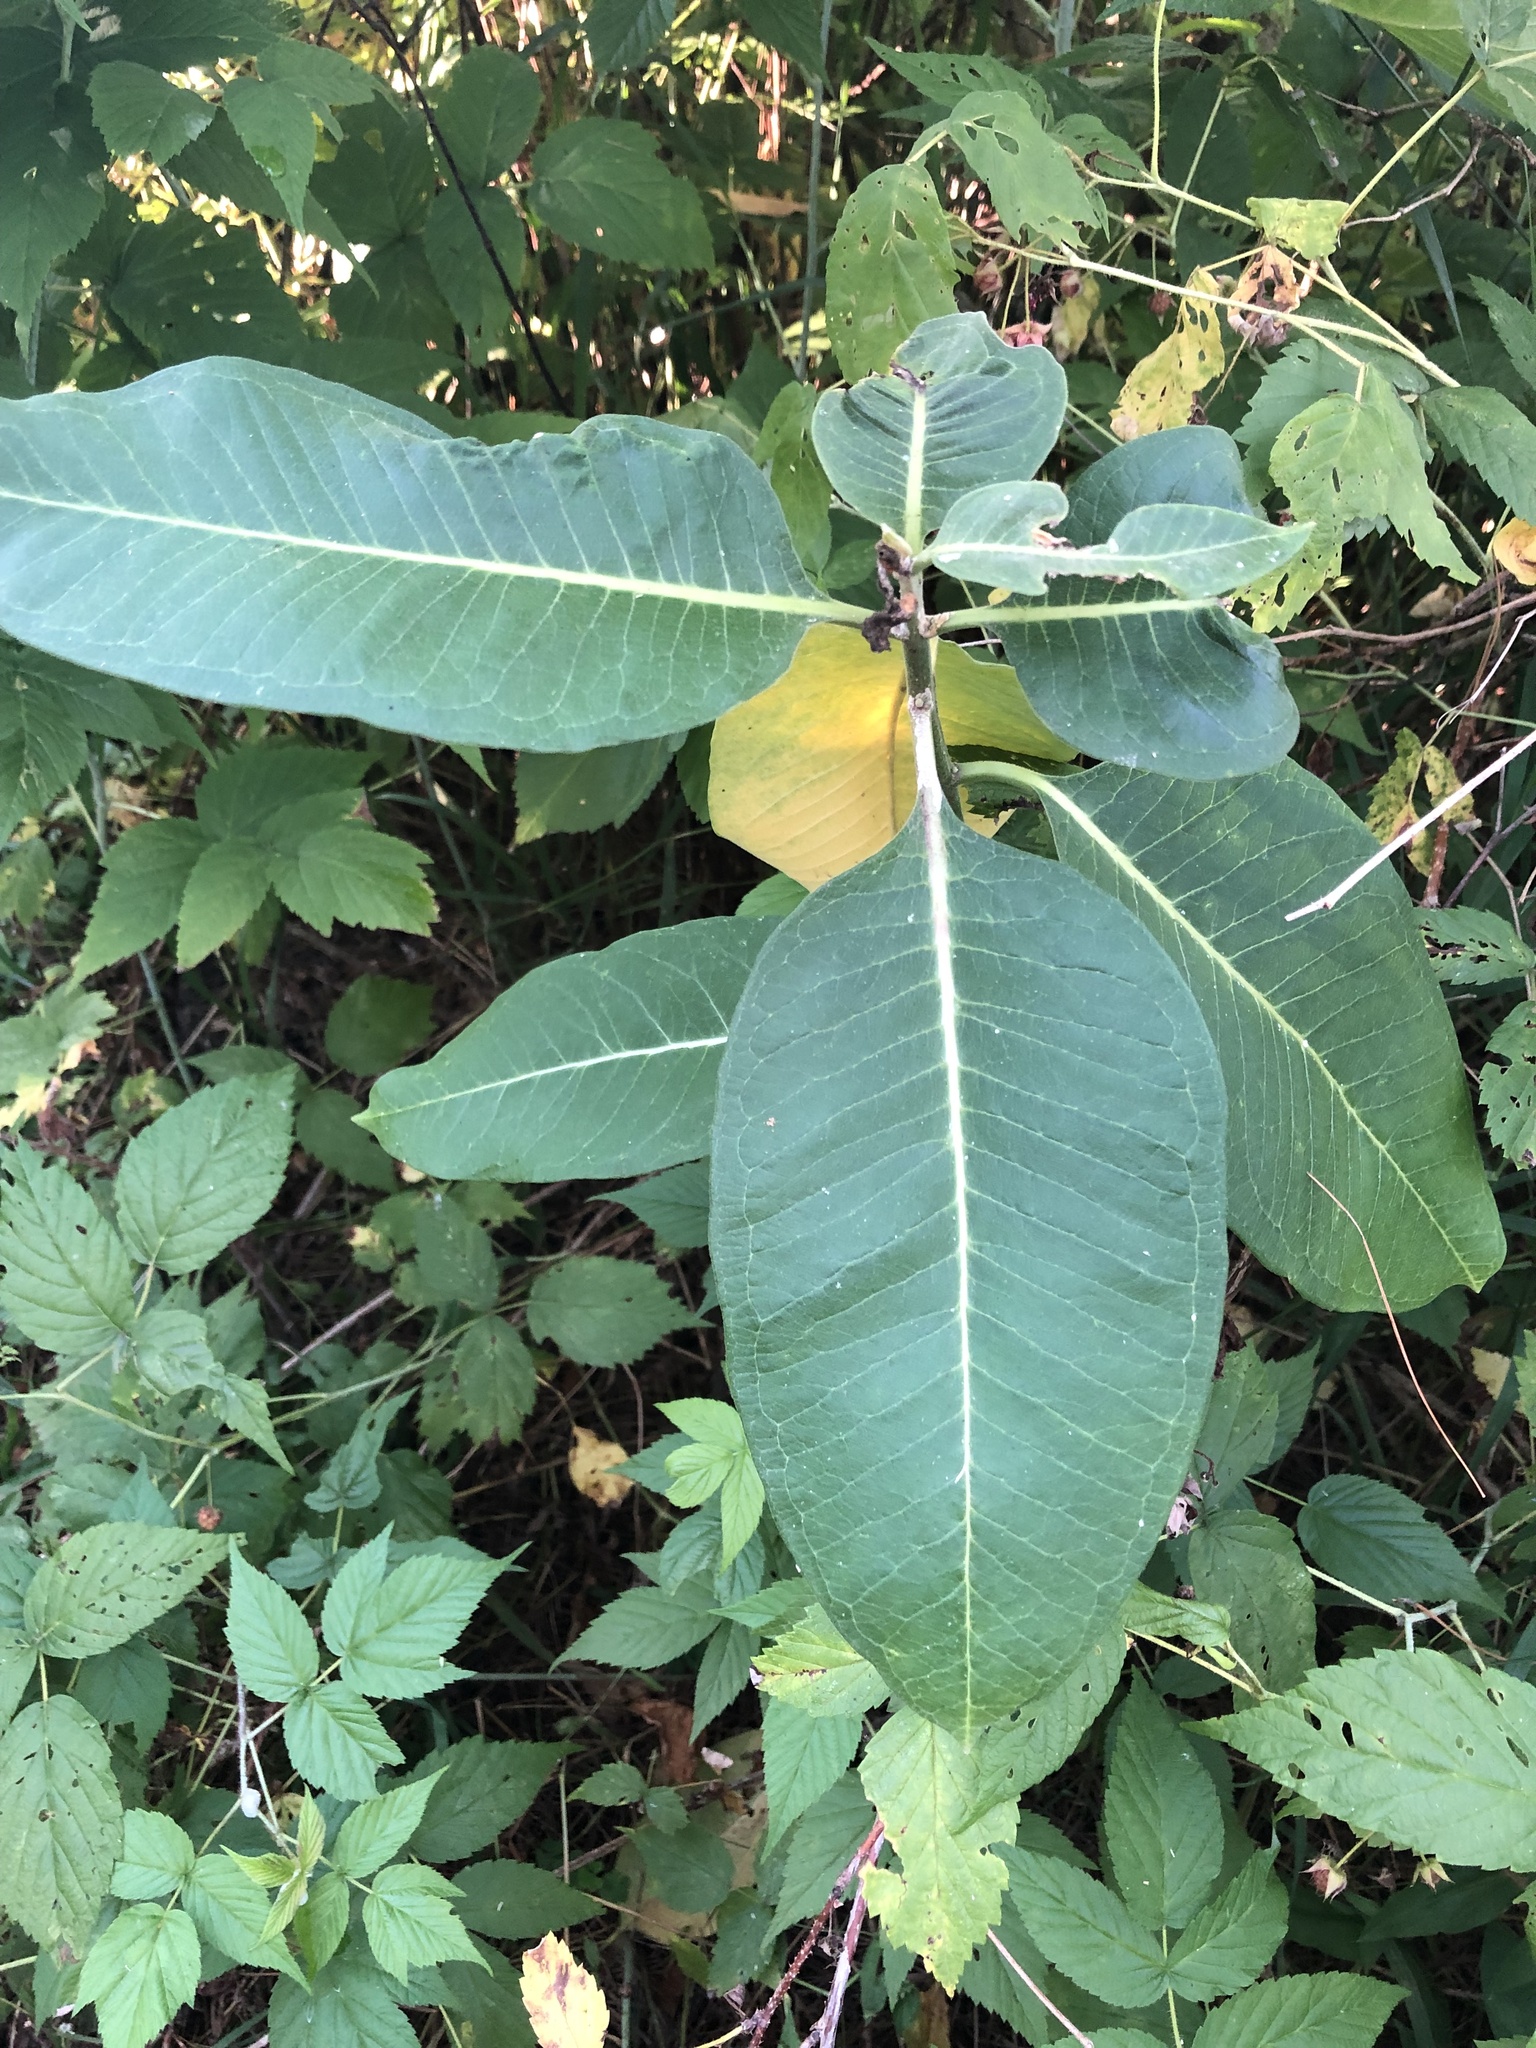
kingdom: Plantae
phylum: Tracheophyta
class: Magnoliopsida
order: Gentianales
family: Apocynaceae
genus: Asclepias
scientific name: Asclepias syriaca
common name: Common milkweed
